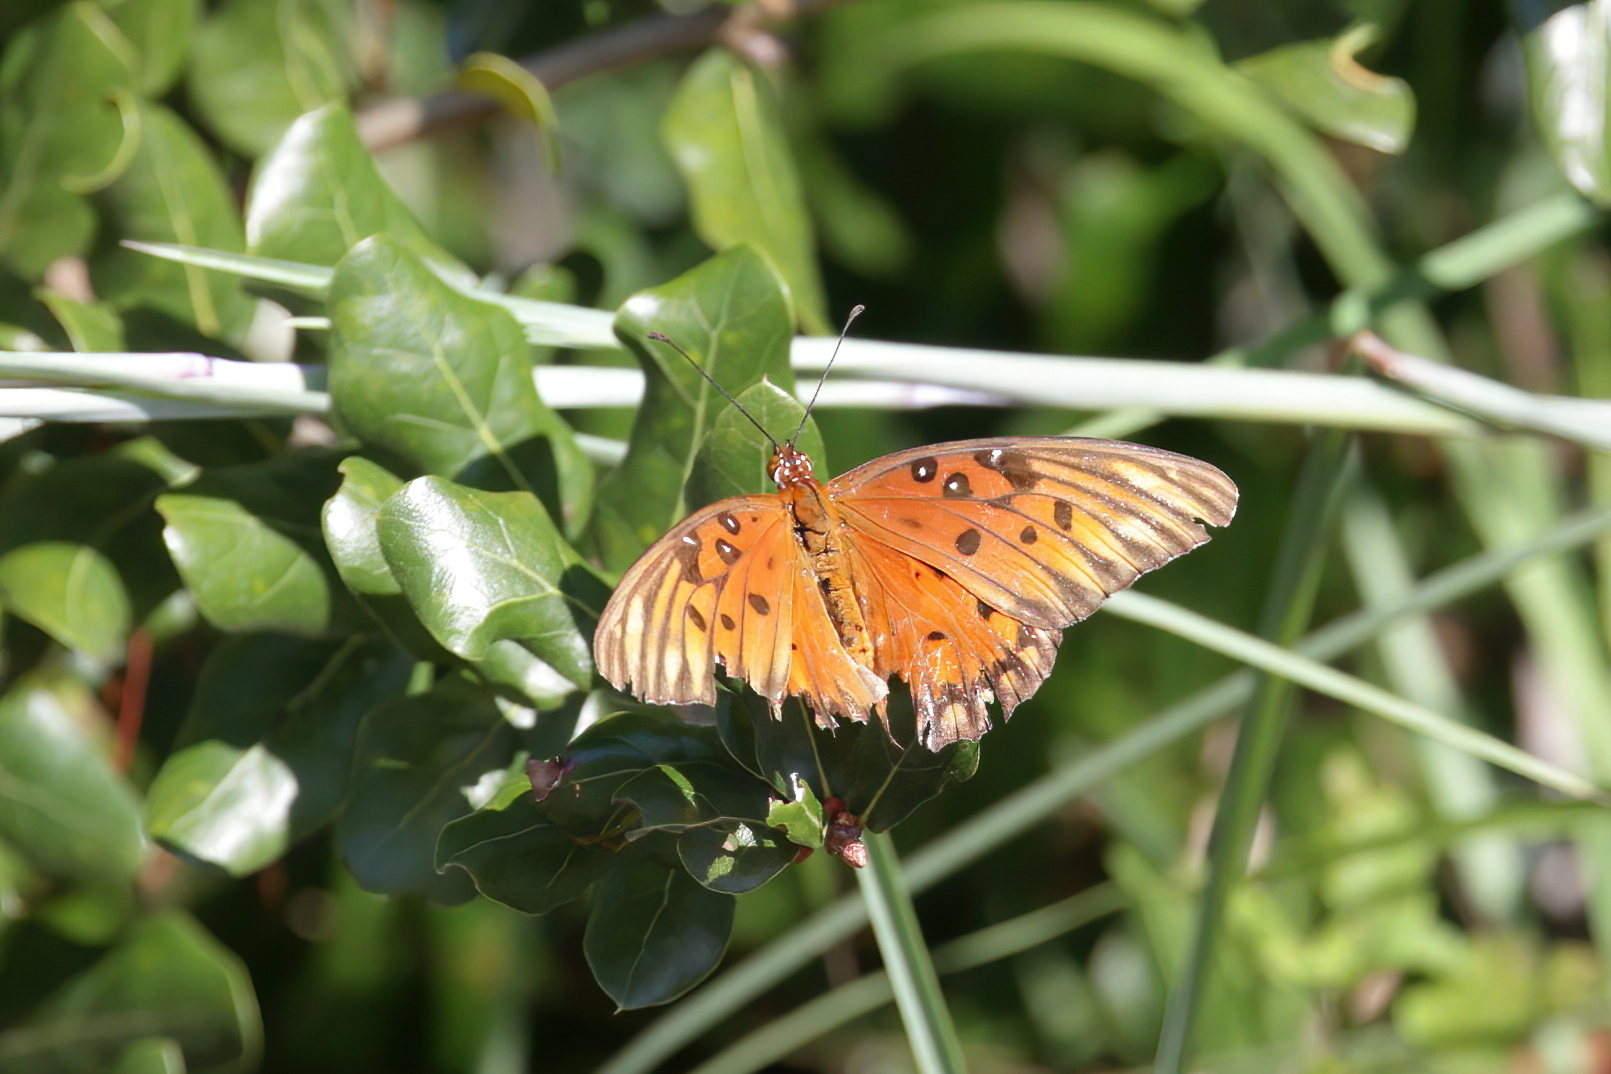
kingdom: Animalia
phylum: Arthropoda
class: Insecta
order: Lepidoptera
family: Nymphalidae
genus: Dione
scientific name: Dione vanillae
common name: Gulf fritillary
